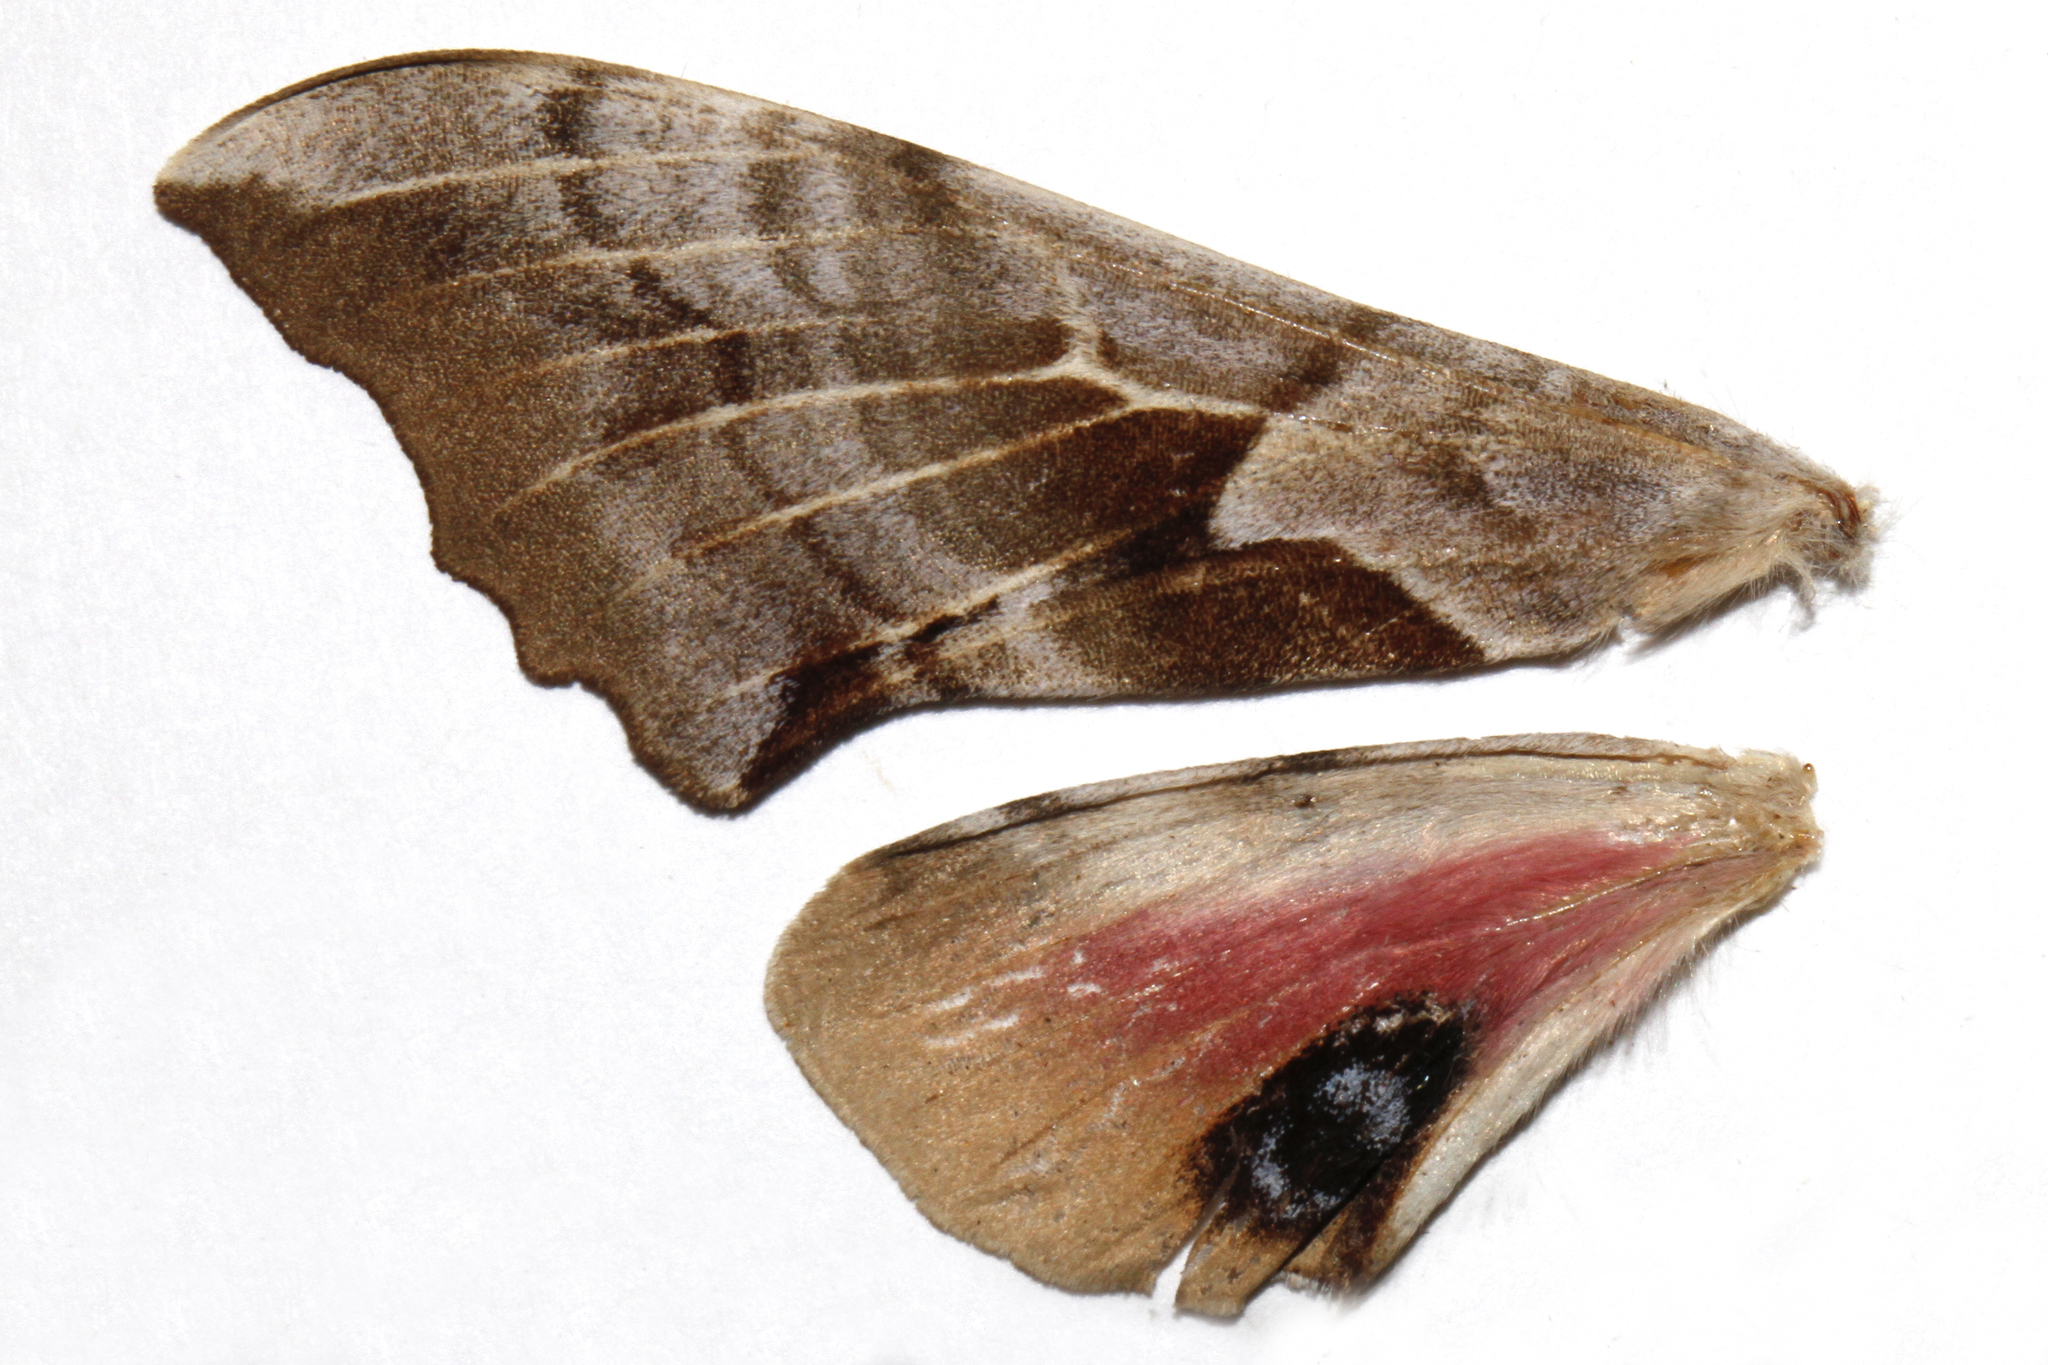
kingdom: Animalia
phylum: Arthropoda
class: Insecta
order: Lepidoptera
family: Sphingidae
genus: Smerinthus
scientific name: Smerinthus saliceti
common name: Salicet sphinx
